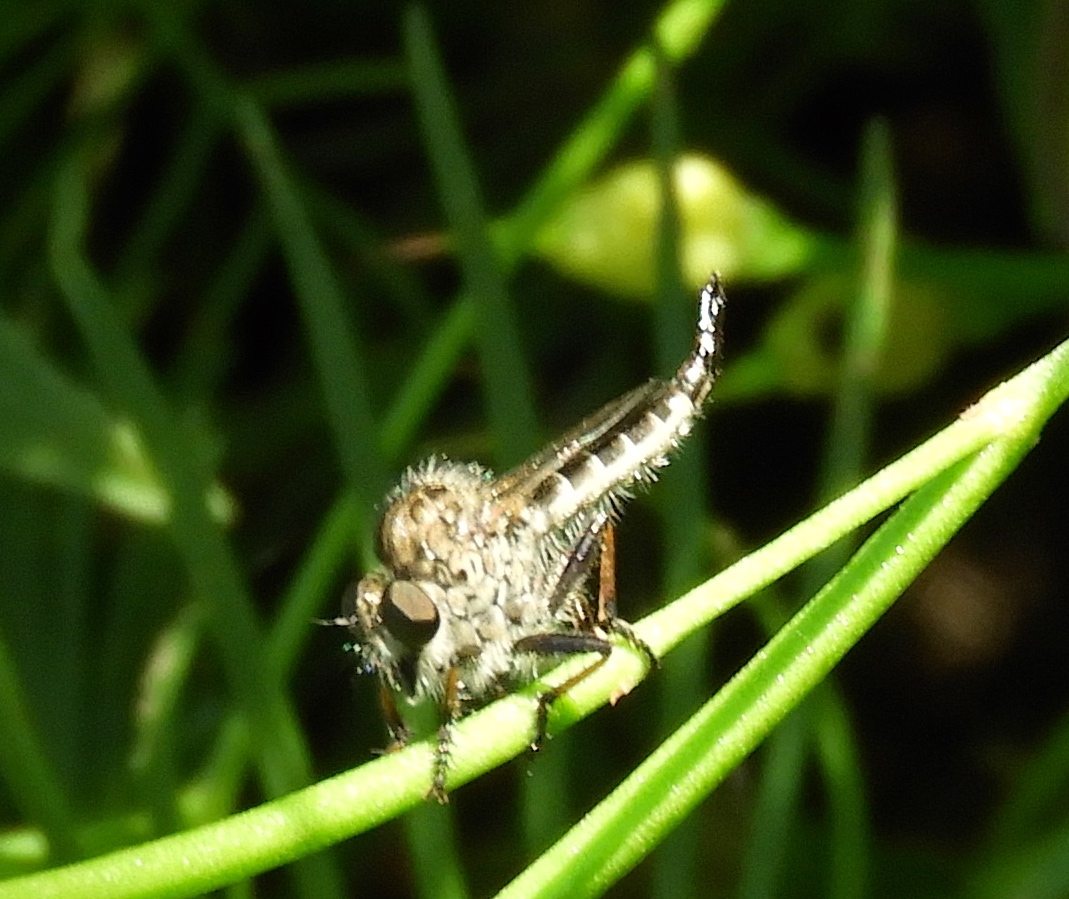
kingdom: Animalia
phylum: Arthropoda
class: Insecta
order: Diptera
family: Asilidae
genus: Efferia
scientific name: Efferia
